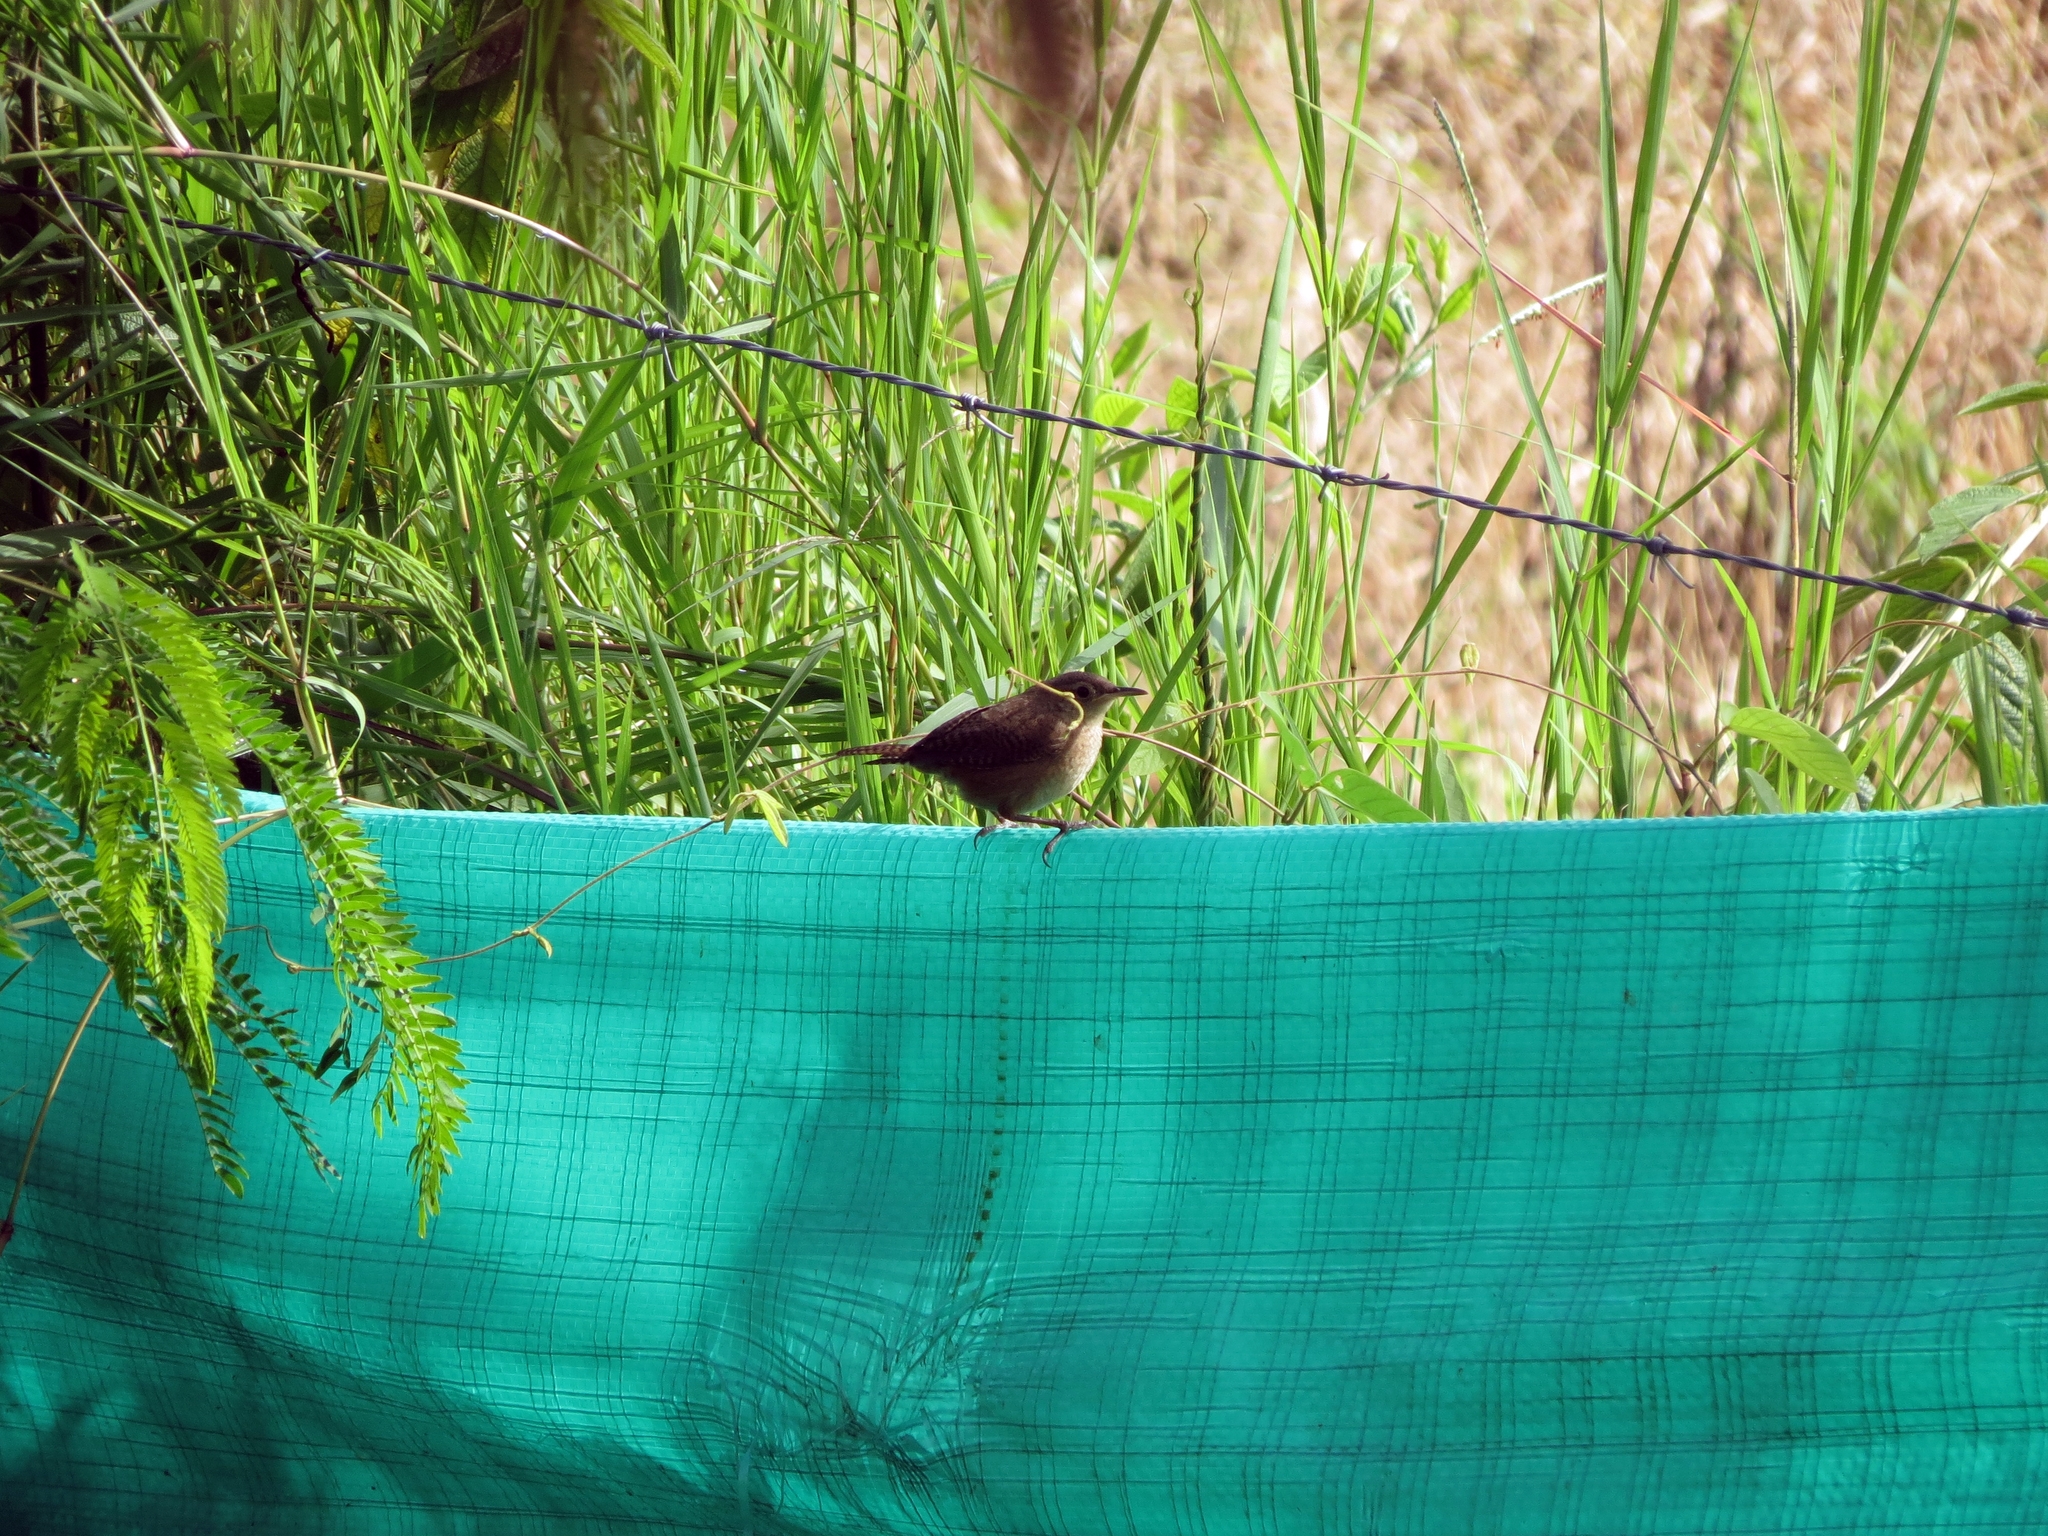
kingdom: Animalia
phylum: Chordata
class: Aves
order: Passeriformes
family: Troglodytidae
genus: Troglodytes
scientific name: Troglodytes aedon
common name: House wren
